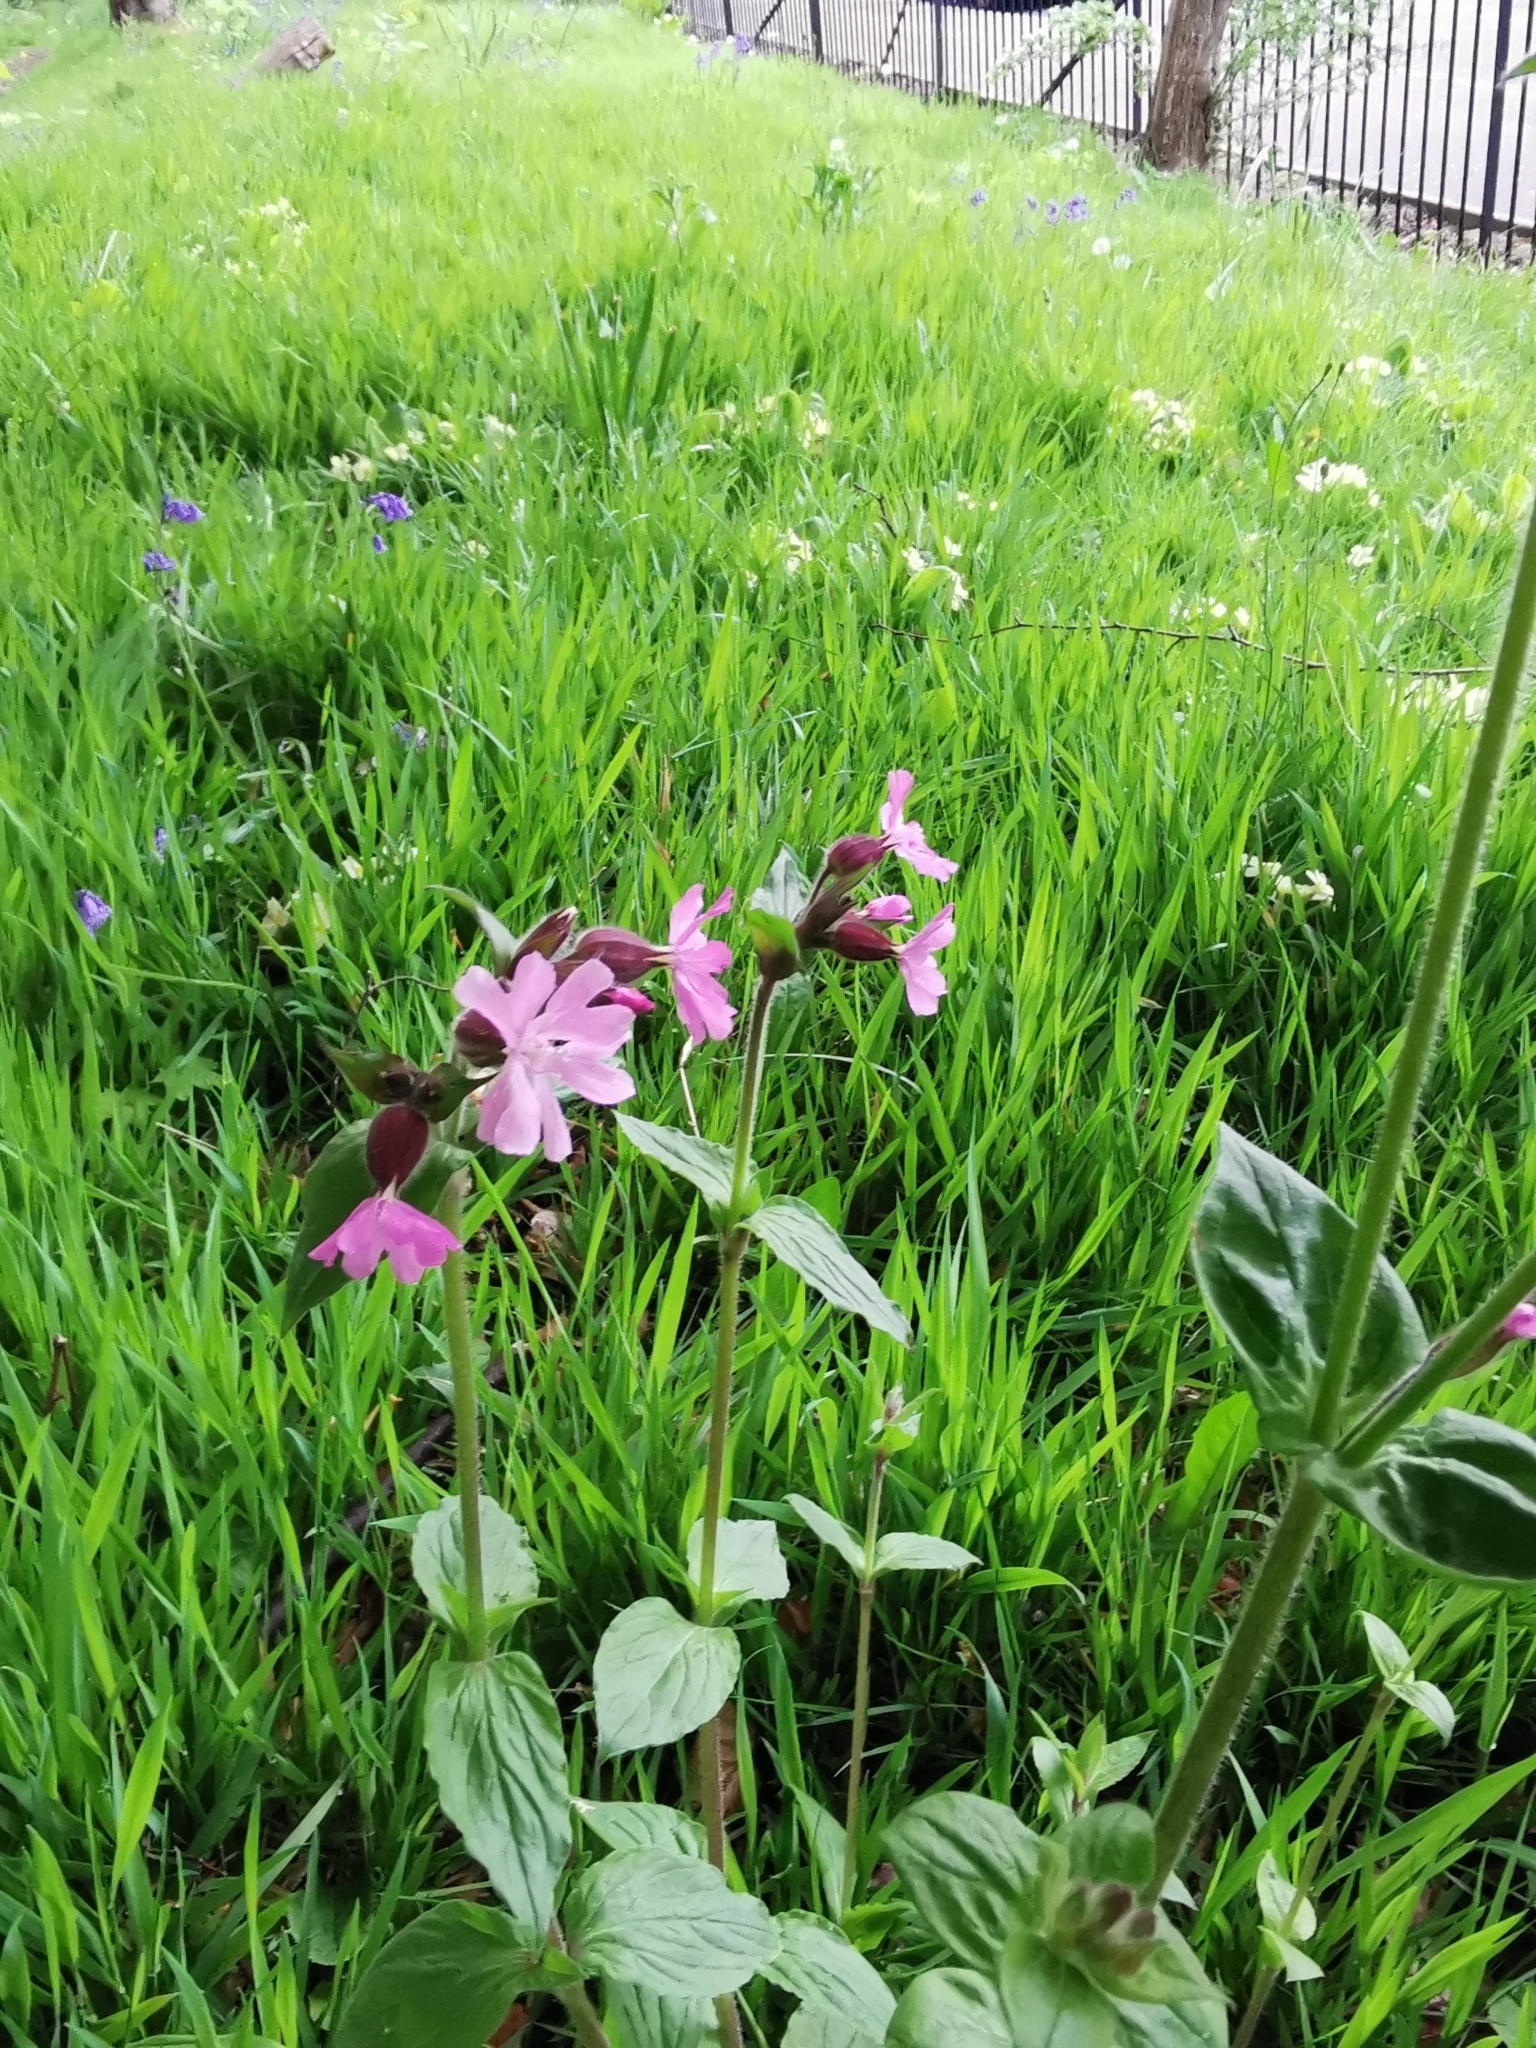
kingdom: Plantae
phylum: Tracheophyta
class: Magnoliopsida
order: Caryophyllales
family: Caryophyllaceae
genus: Silene
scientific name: Silene dioica
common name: Red campion
